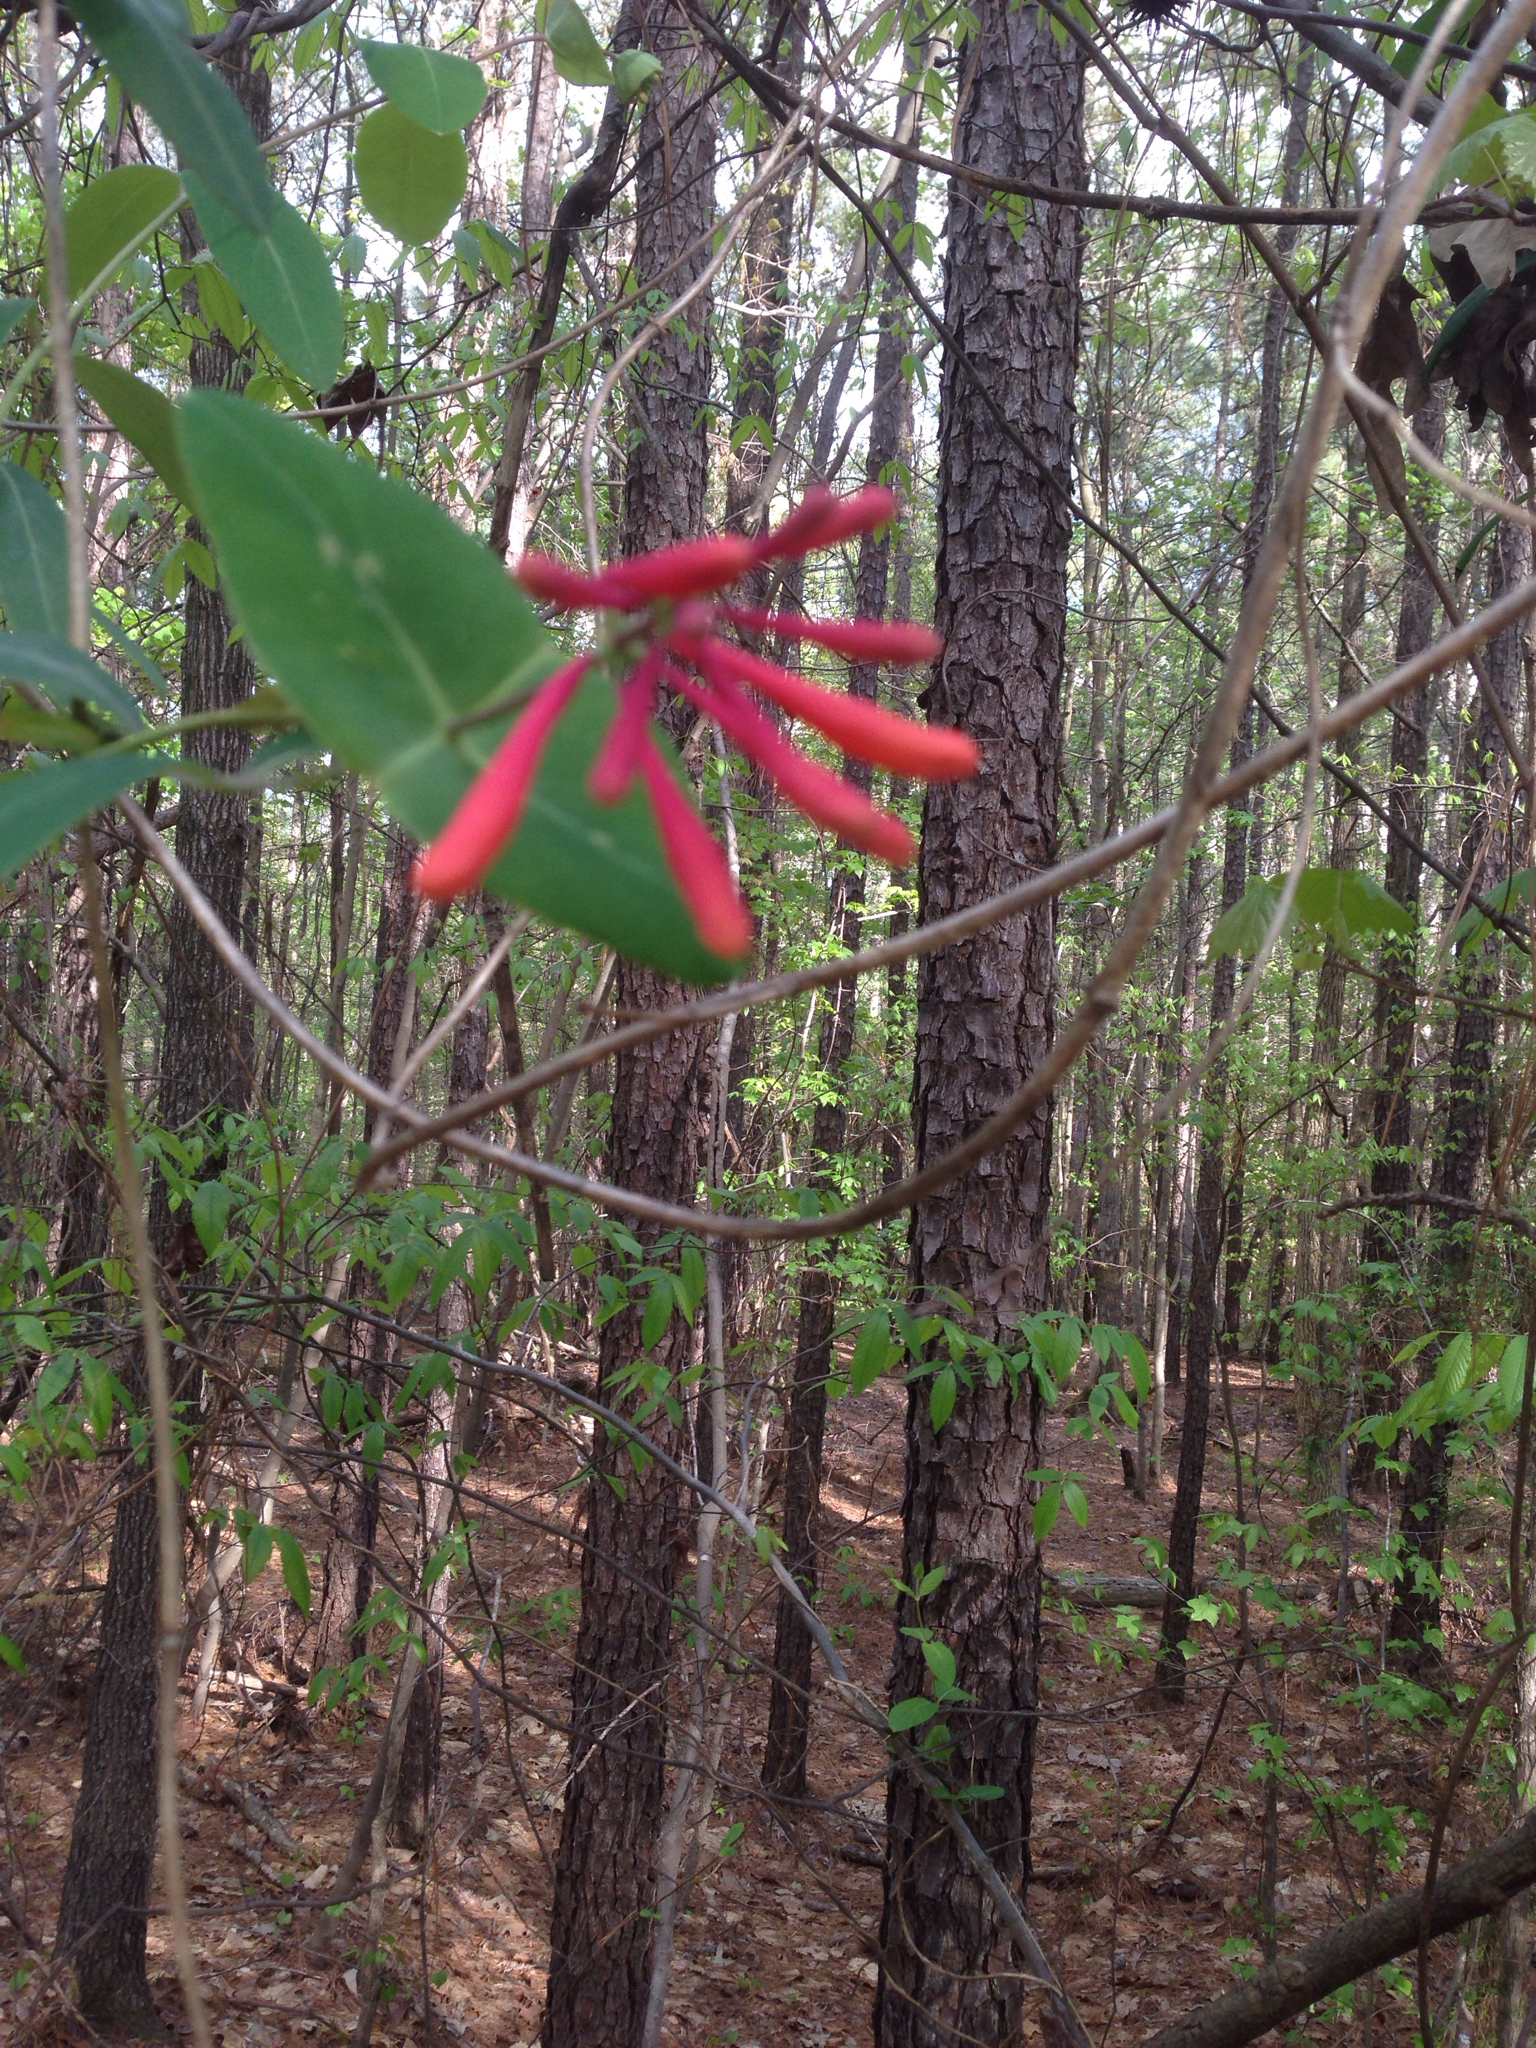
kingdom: Plantae
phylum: Tracheophyta
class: Magnoliopsida
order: Dipsacales
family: Caprifoliaceae
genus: Lonicera
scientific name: Lonicera sempervirens
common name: Coral honeysuckle
